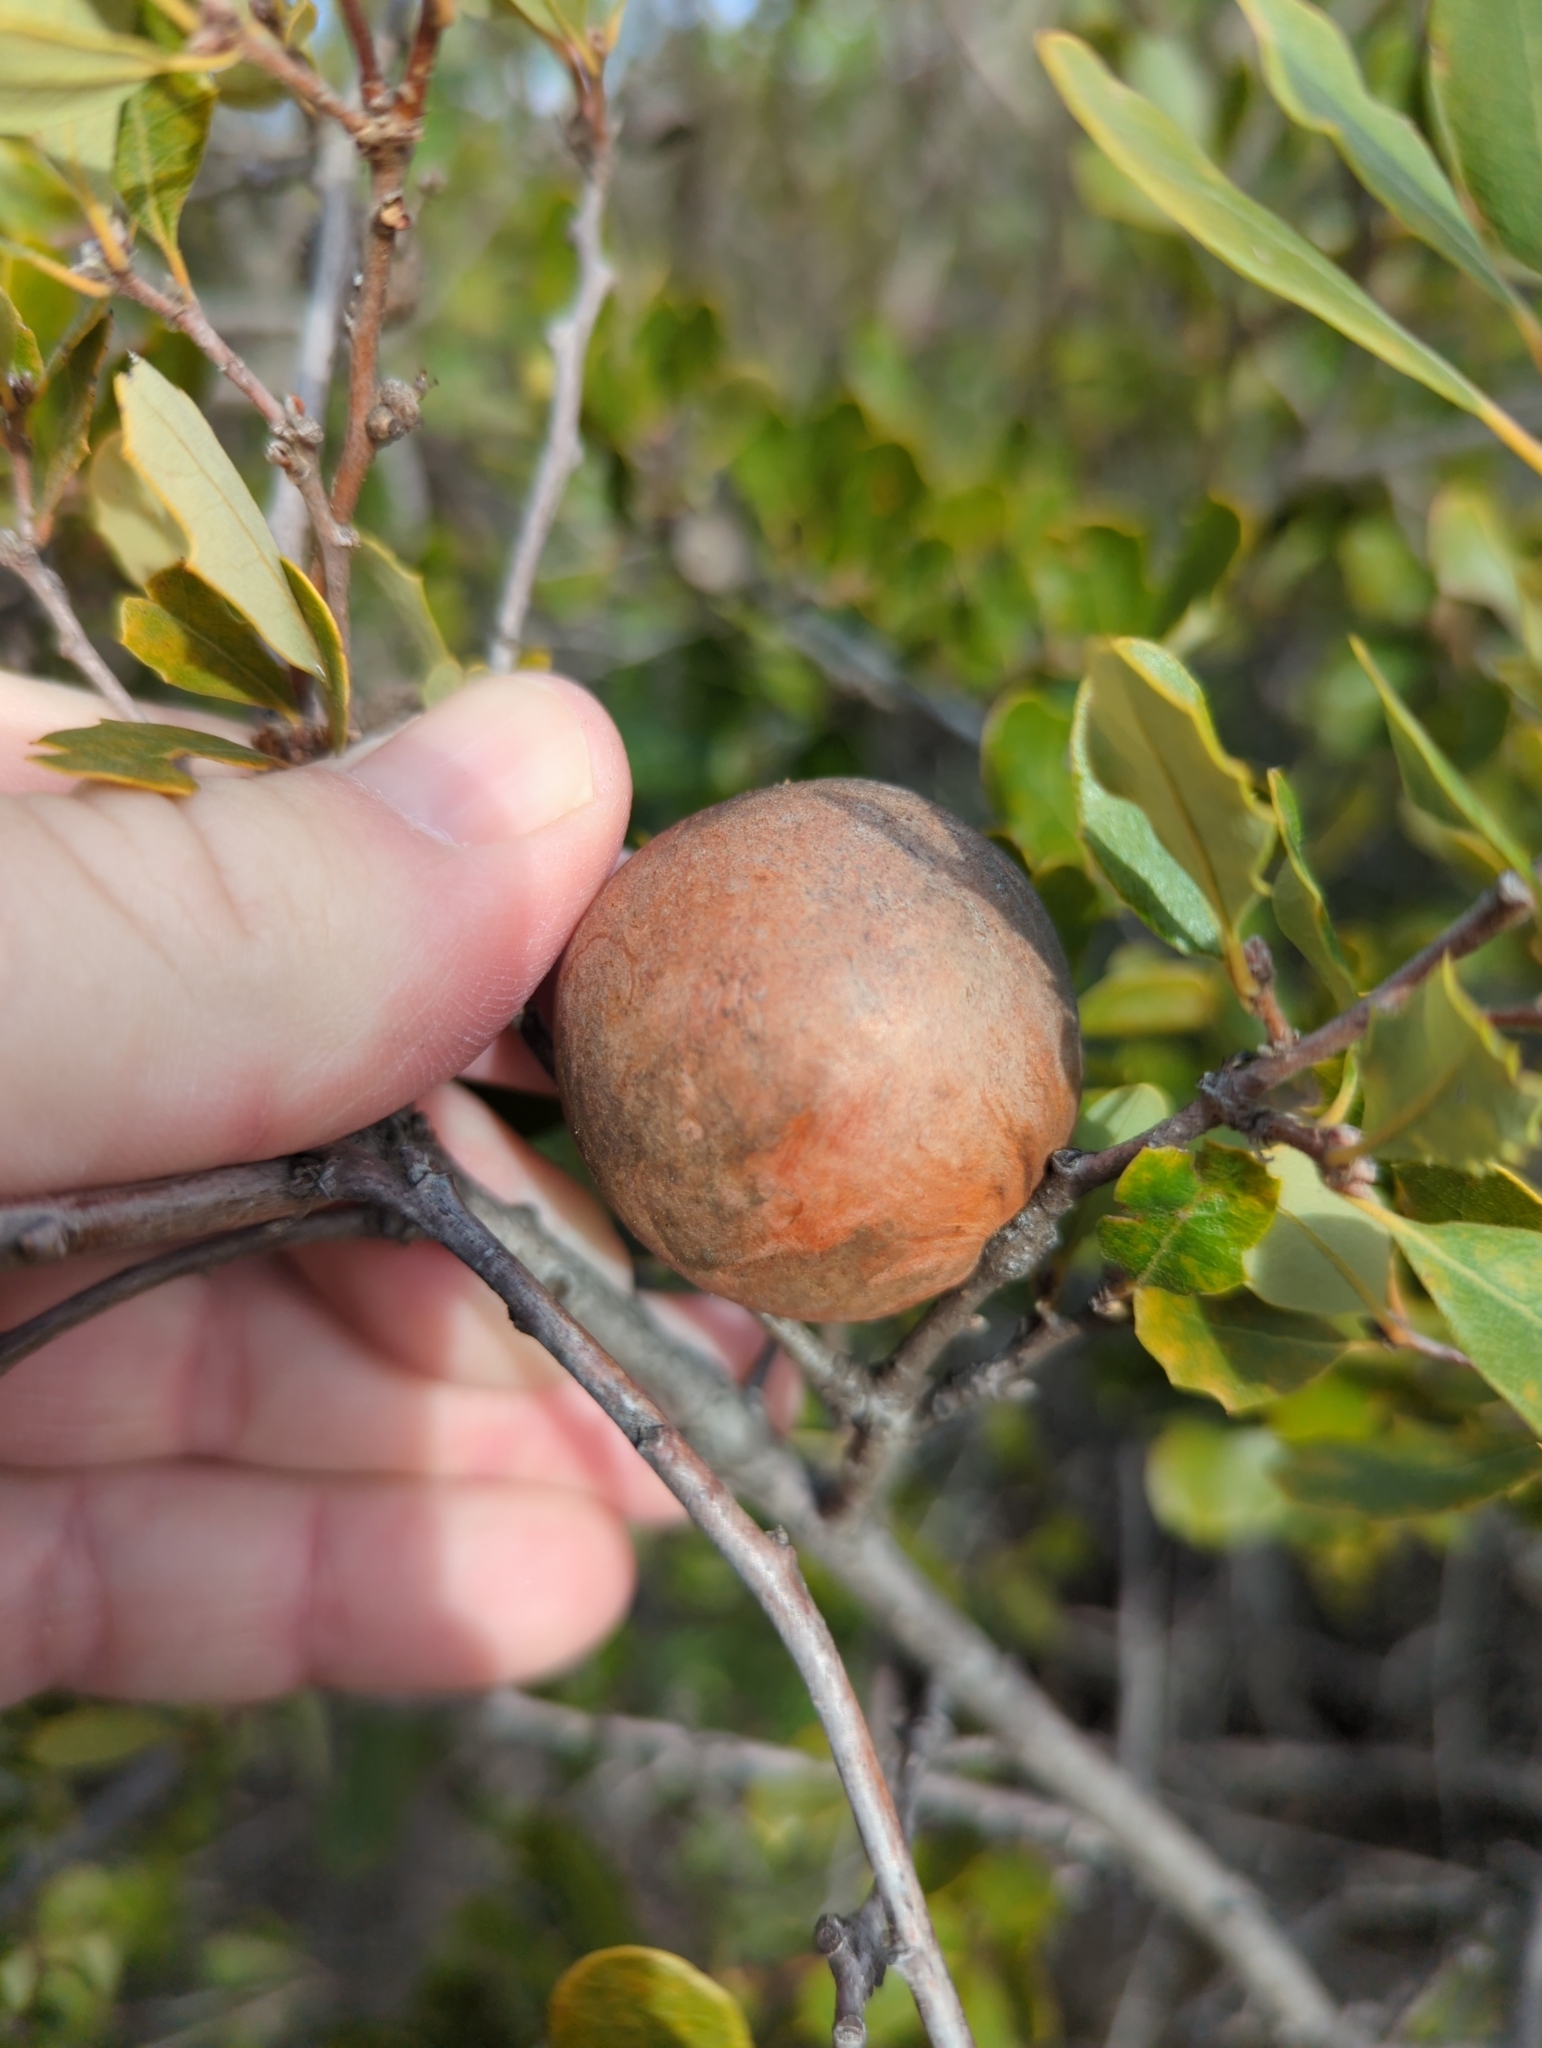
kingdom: Animalia
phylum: Arthropoda
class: Insecta
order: Hymenoptera
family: Cynipidae
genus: Andricus
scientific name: Andricus quercuscalifornicus
